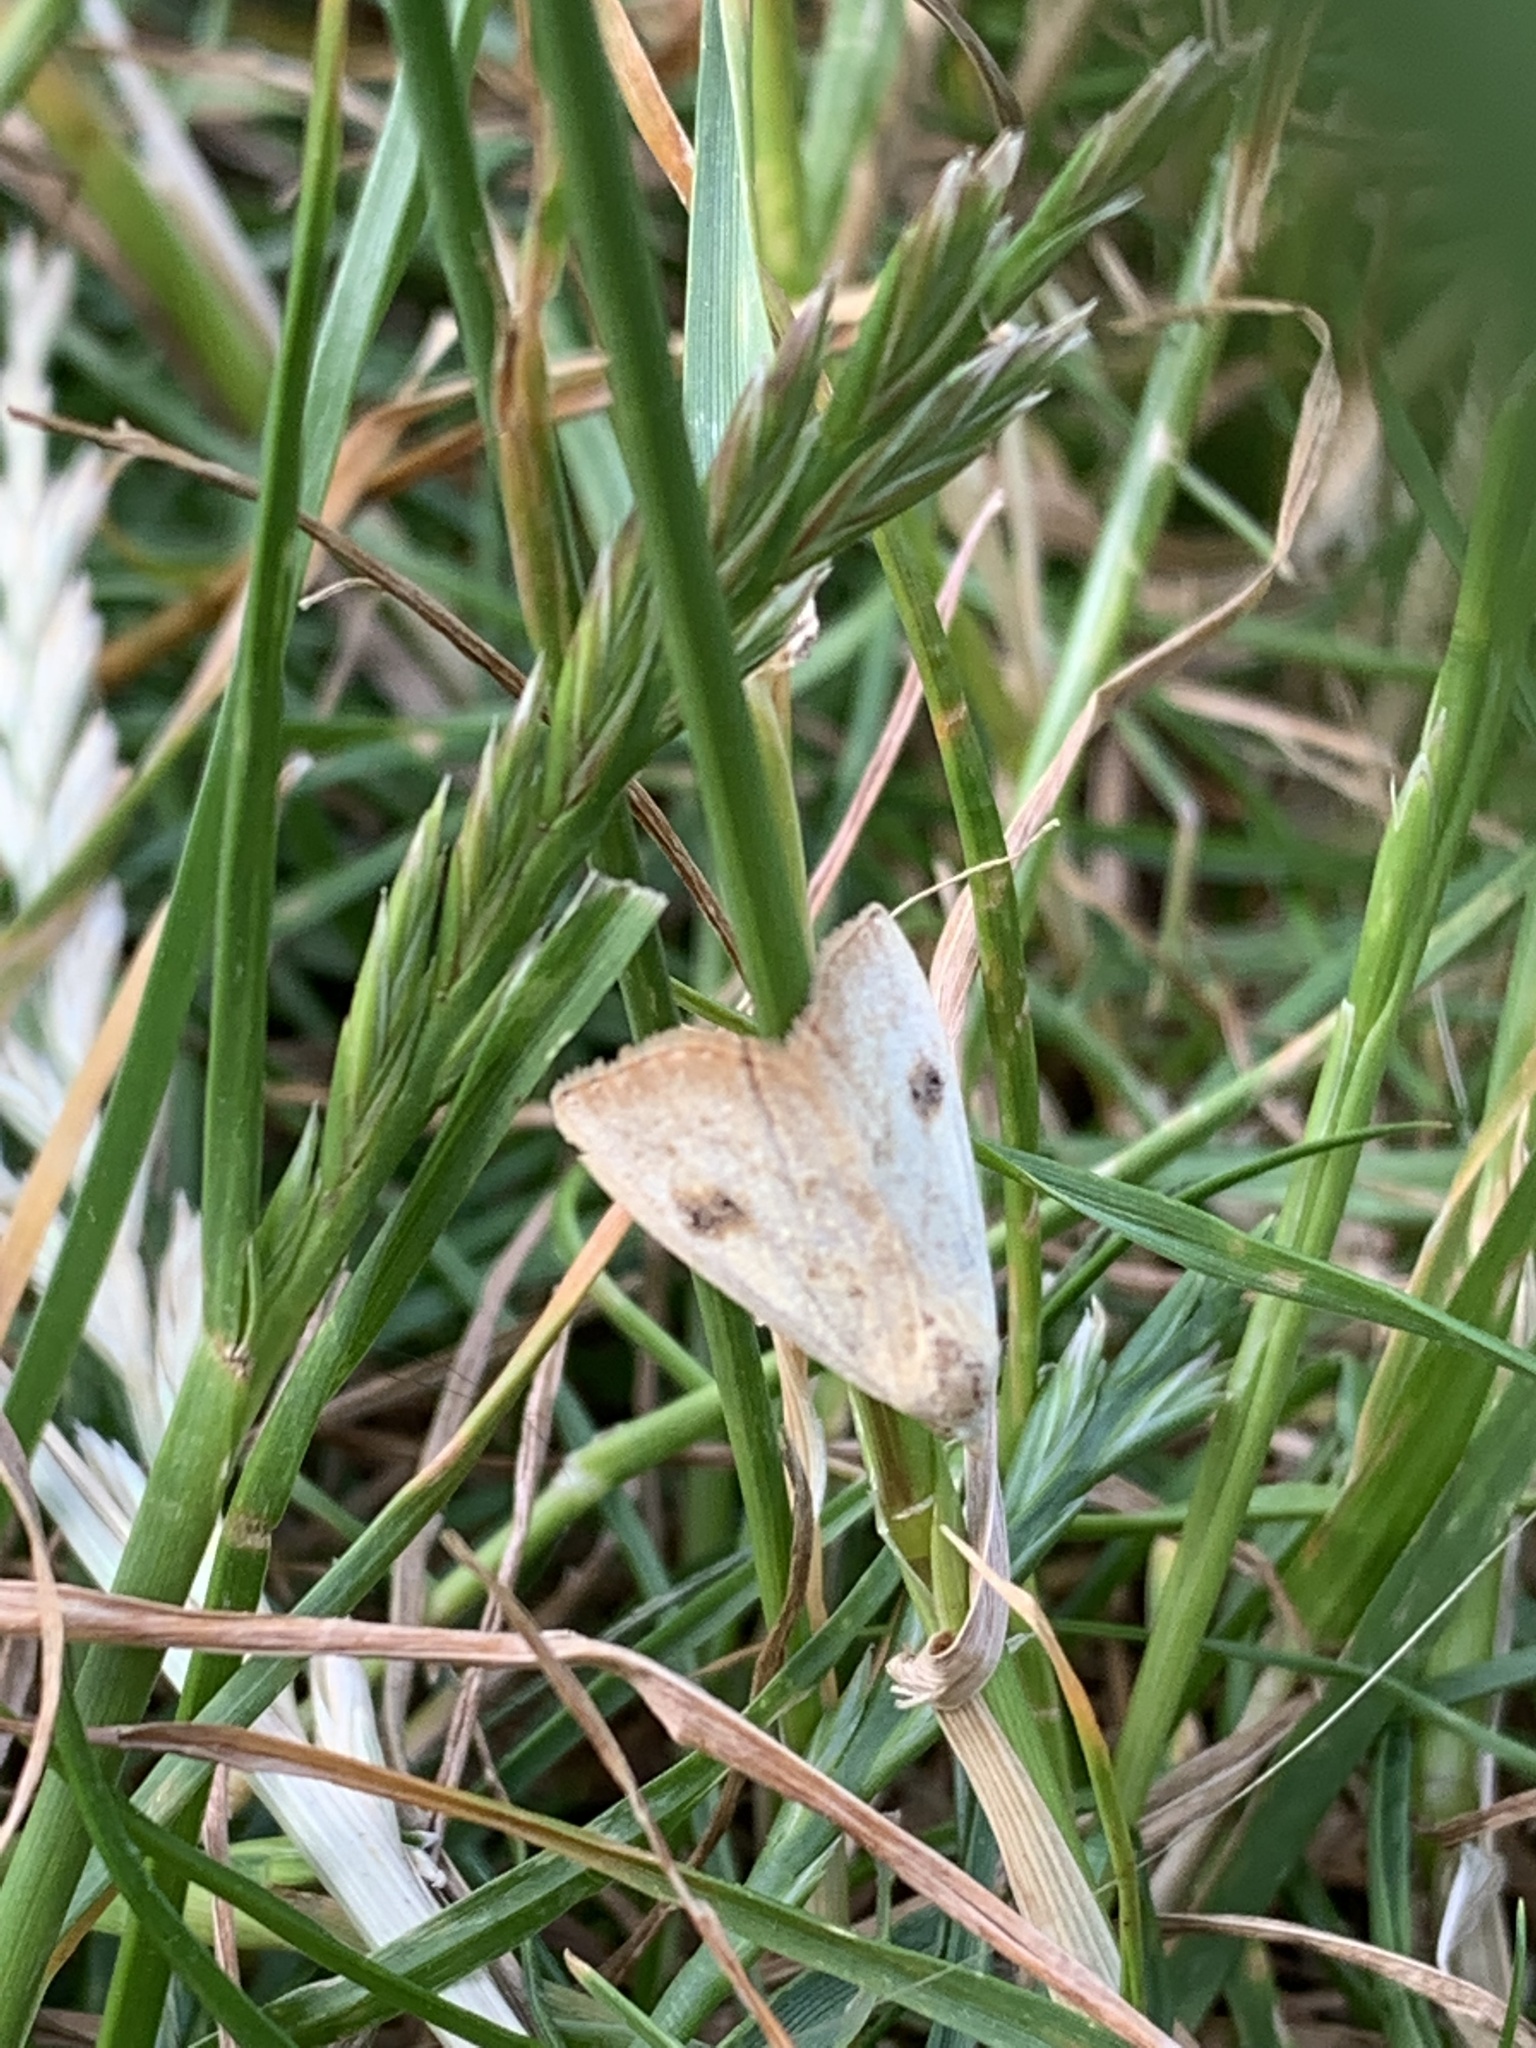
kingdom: Animalia
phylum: Arthropoda
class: Insecta
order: Lepidoptera
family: Erebidae
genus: Rivula
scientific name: Rivula sericealis
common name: Straw dot
